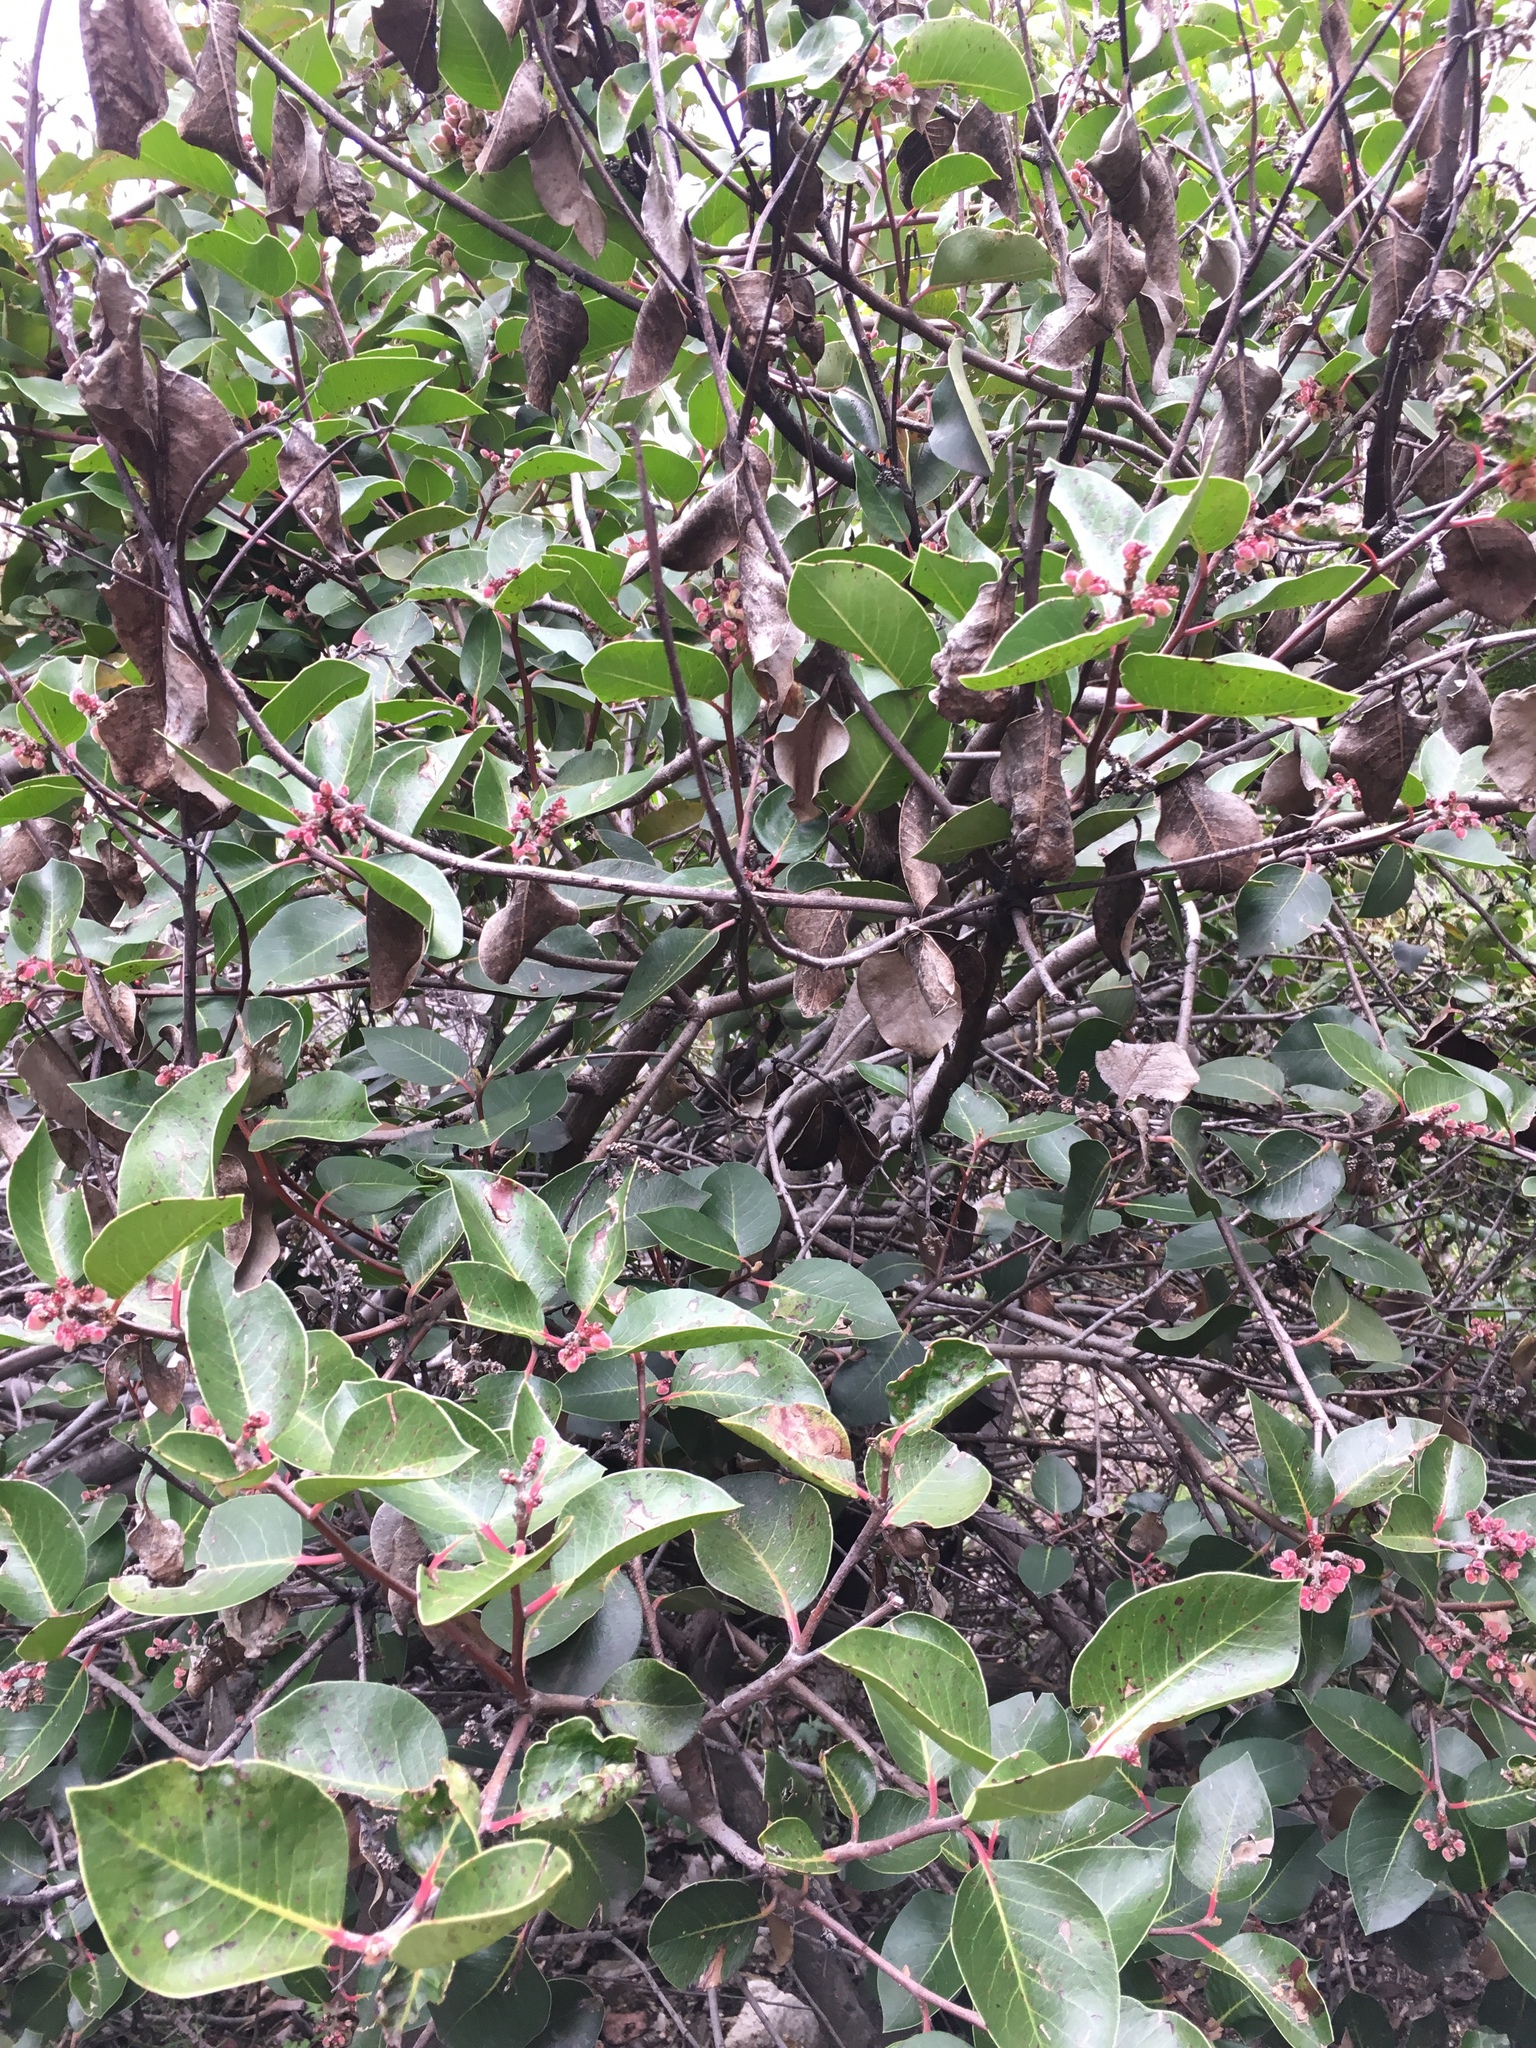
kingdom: Plantae
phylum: Tracheophyta
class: Magnoliopsida
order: Sapindales
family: Anacardiaceae
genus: Rhus
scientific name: Rhus ovata
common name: Sugar sumac
